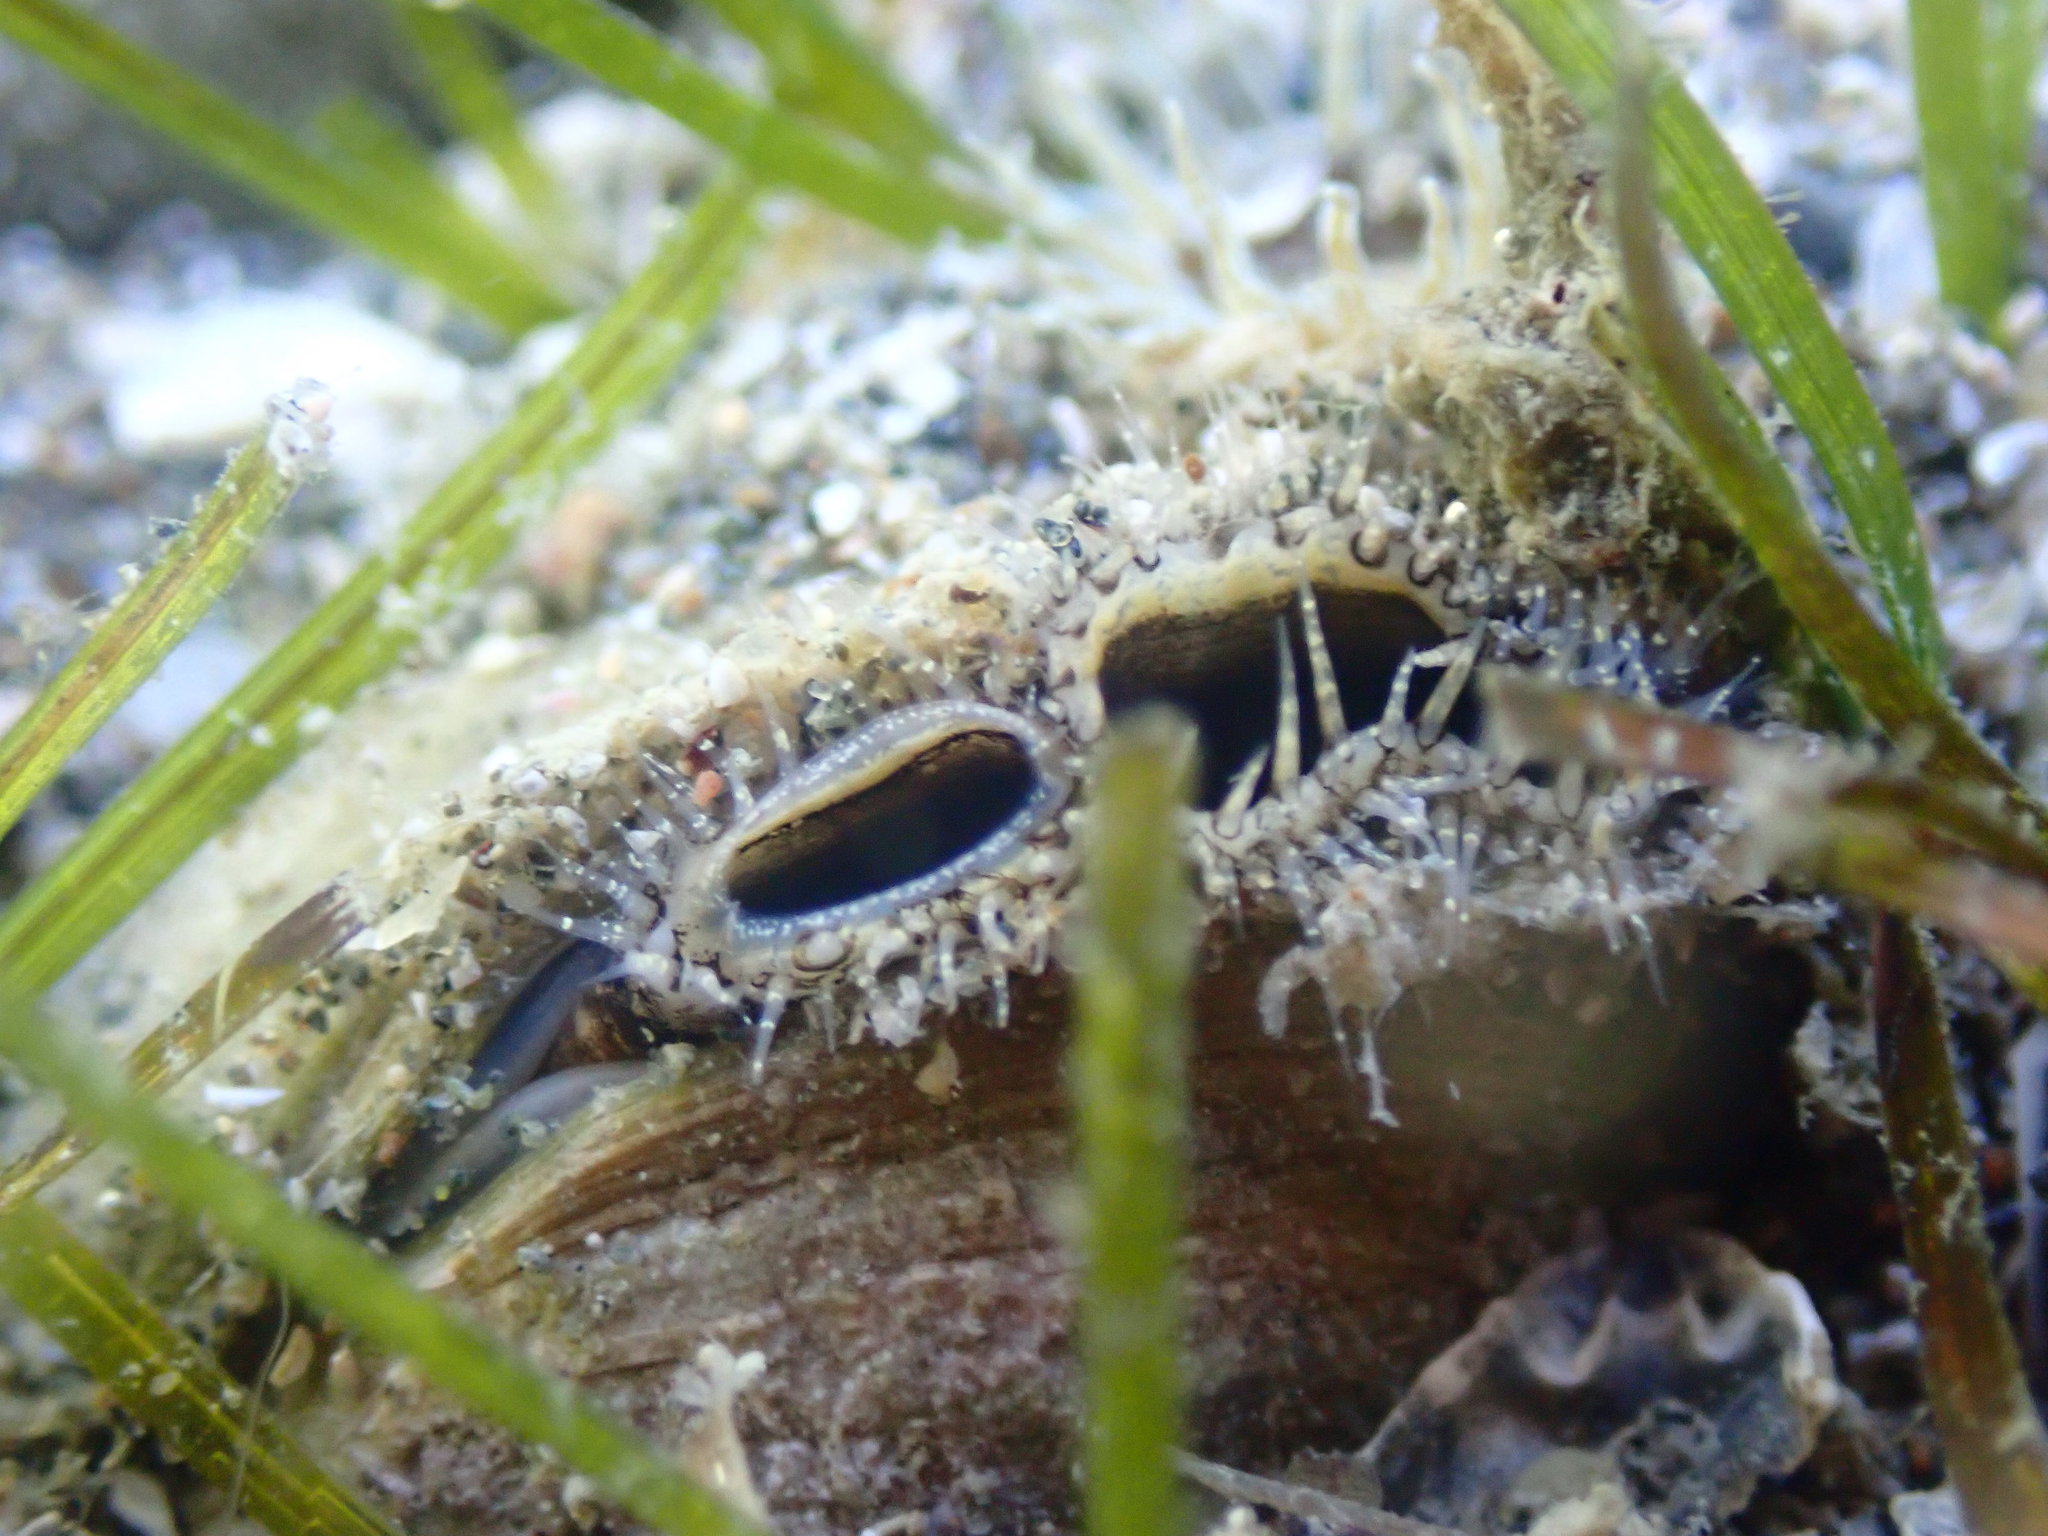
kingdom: Animalia
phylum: Mollusca
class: Bivalvia
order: Venerida
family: Veneridae
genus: Austrovenus
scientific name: Austrovenus stutchburyi
